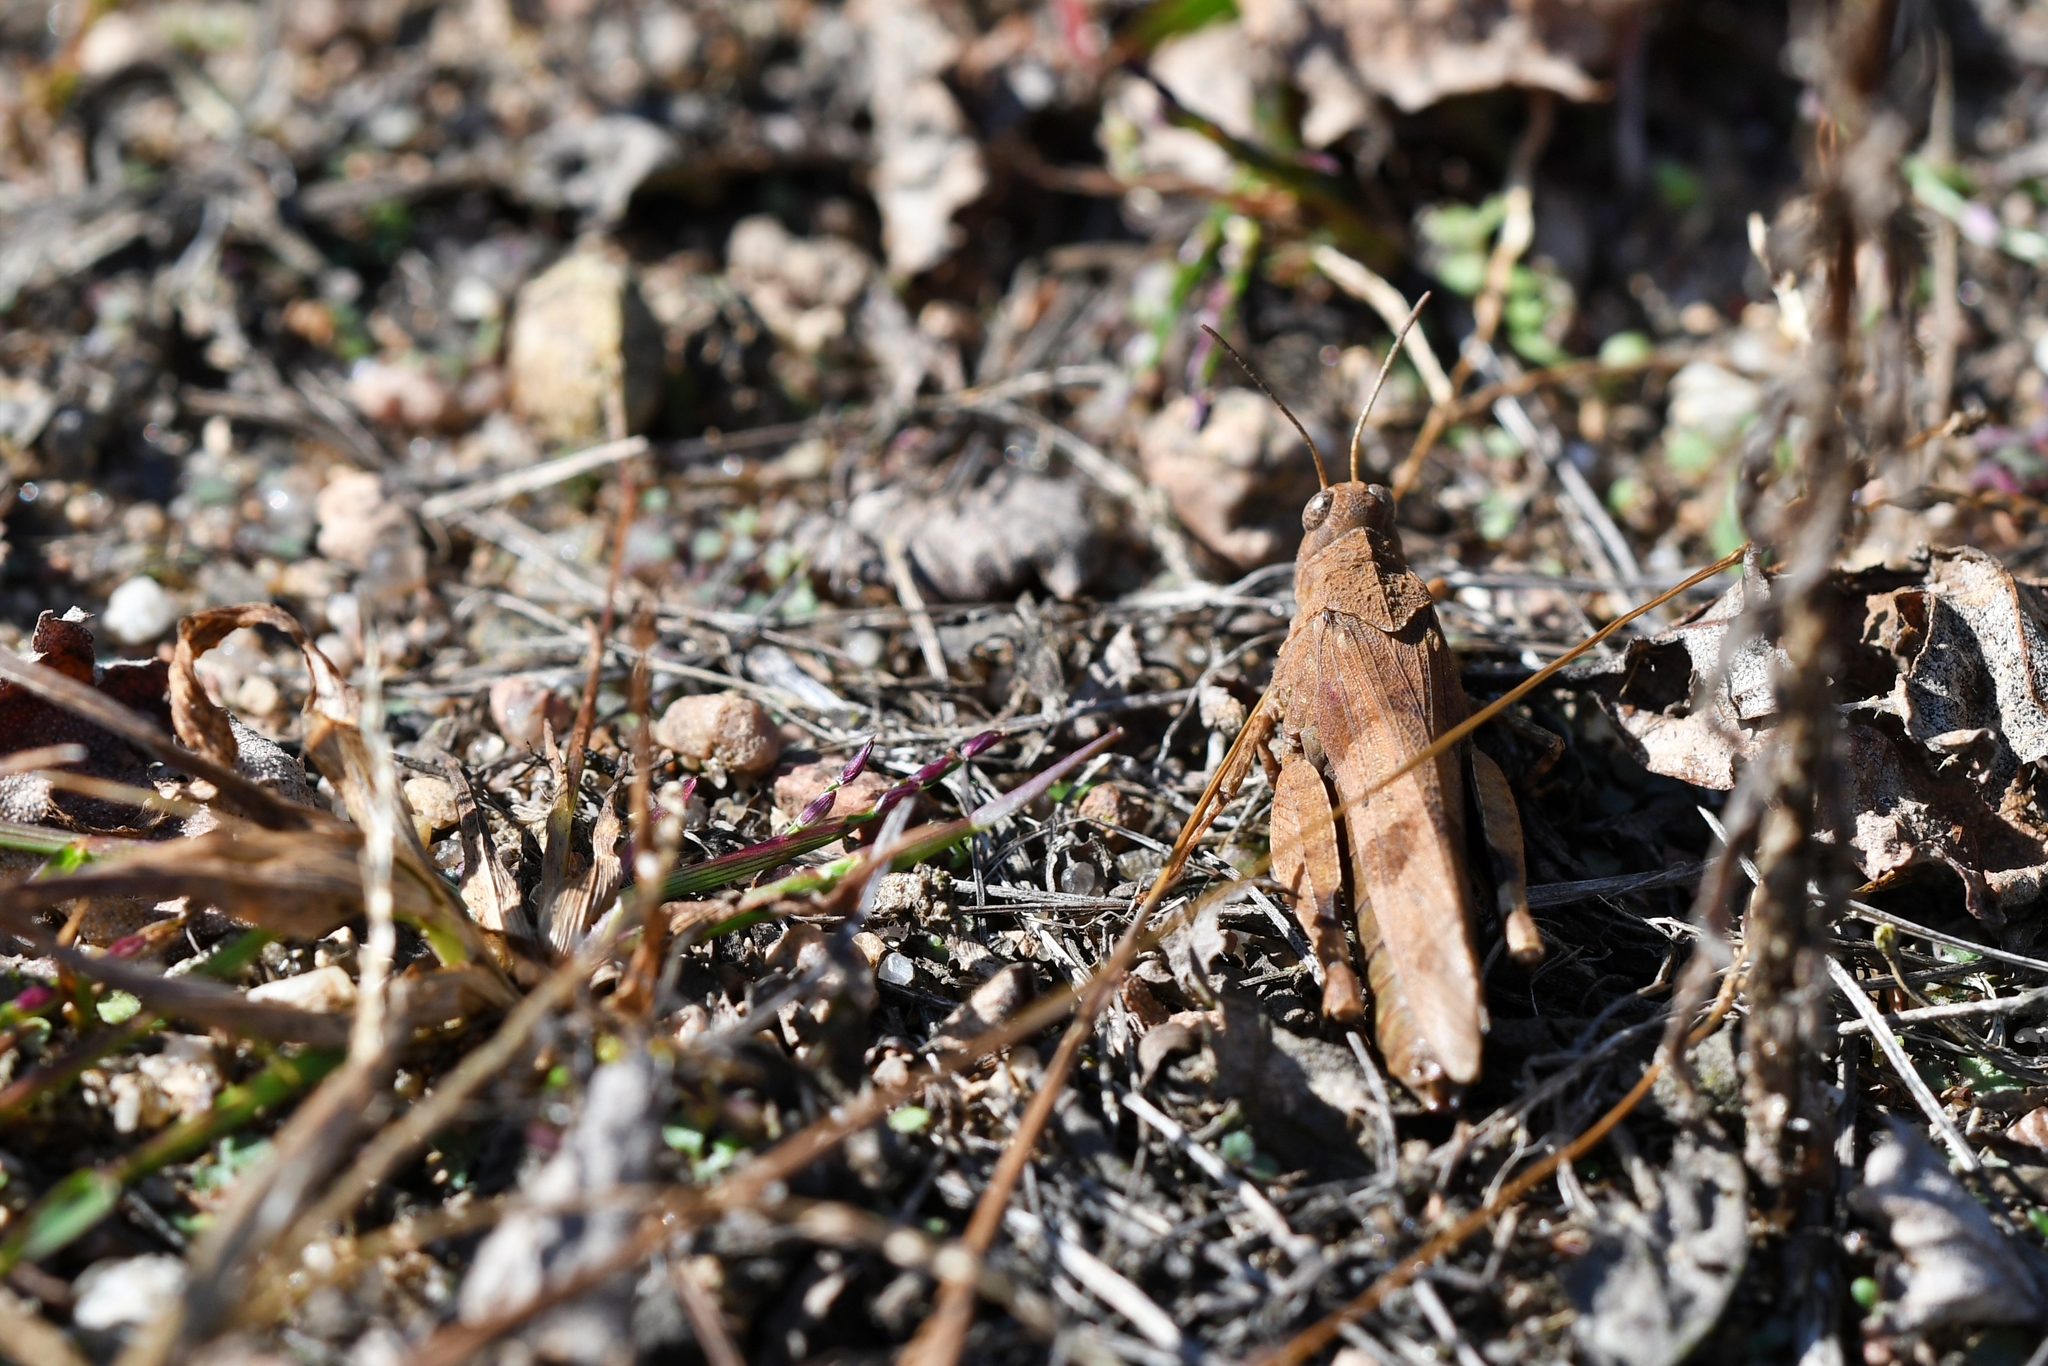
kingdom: Animalia
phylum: Arthropoda
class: Insecta
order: Orthoptera
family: Acrididae
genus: Oedipoda
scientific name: Oedipoda caerulescens
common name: Blue-winged grasshopper
